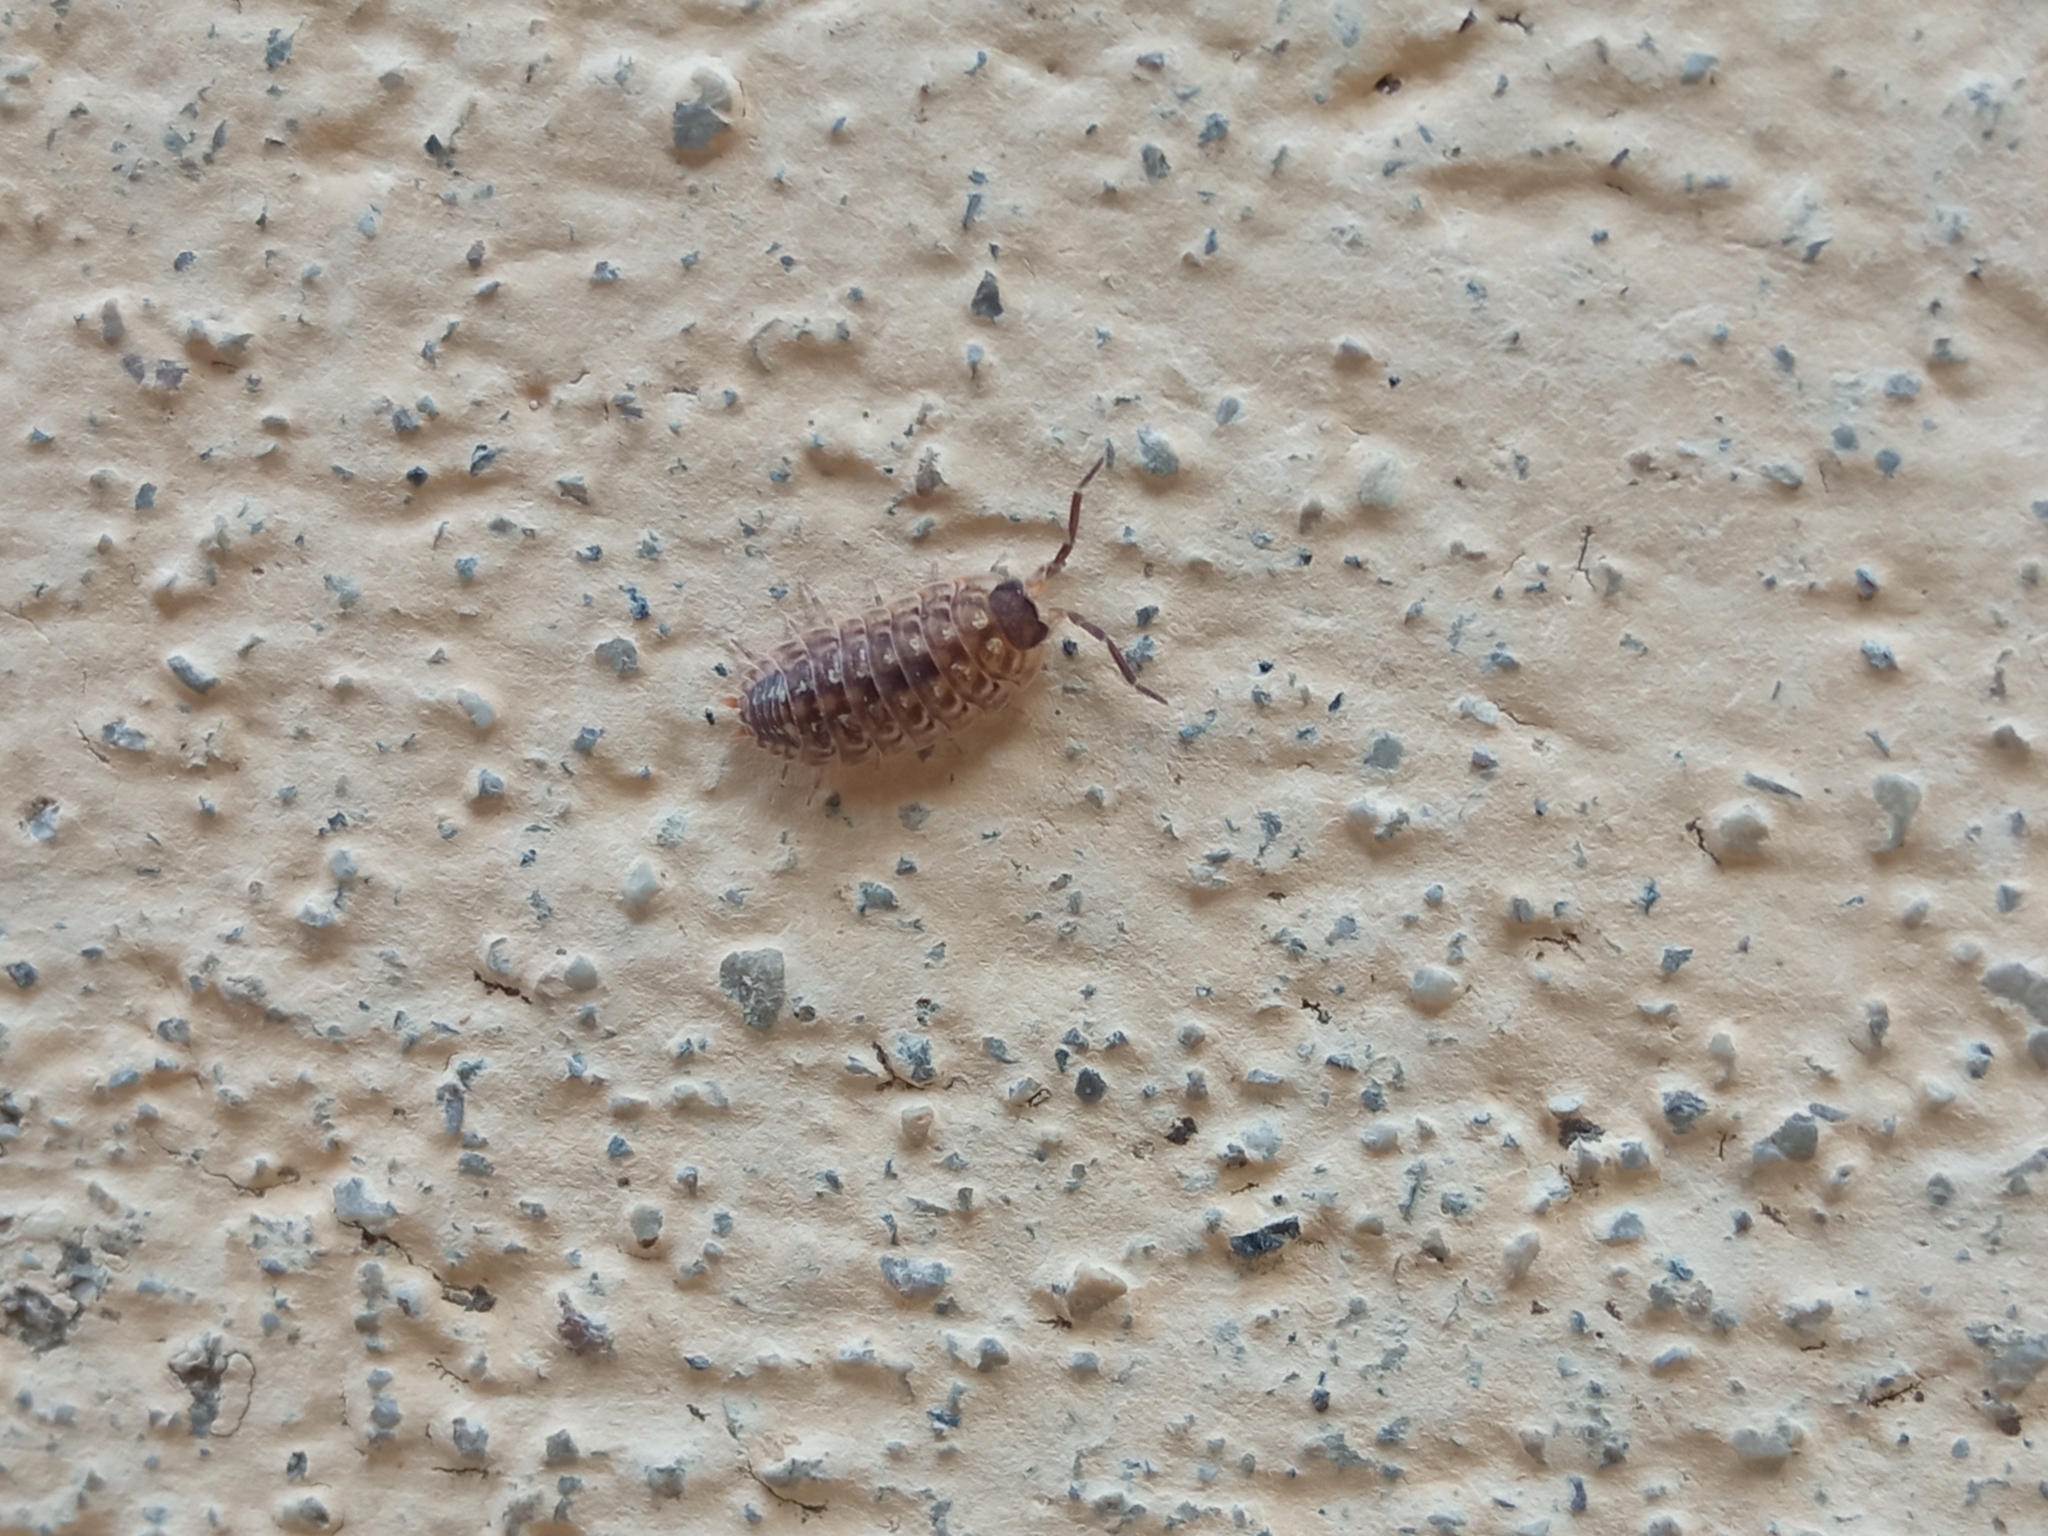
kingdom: Animalia
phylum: Arthropoda
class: Malacostraca
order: Isopoda
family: Porcellionidae
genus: Porcellio
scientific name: Porcellio spinicornis
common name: Painted woodlouse
